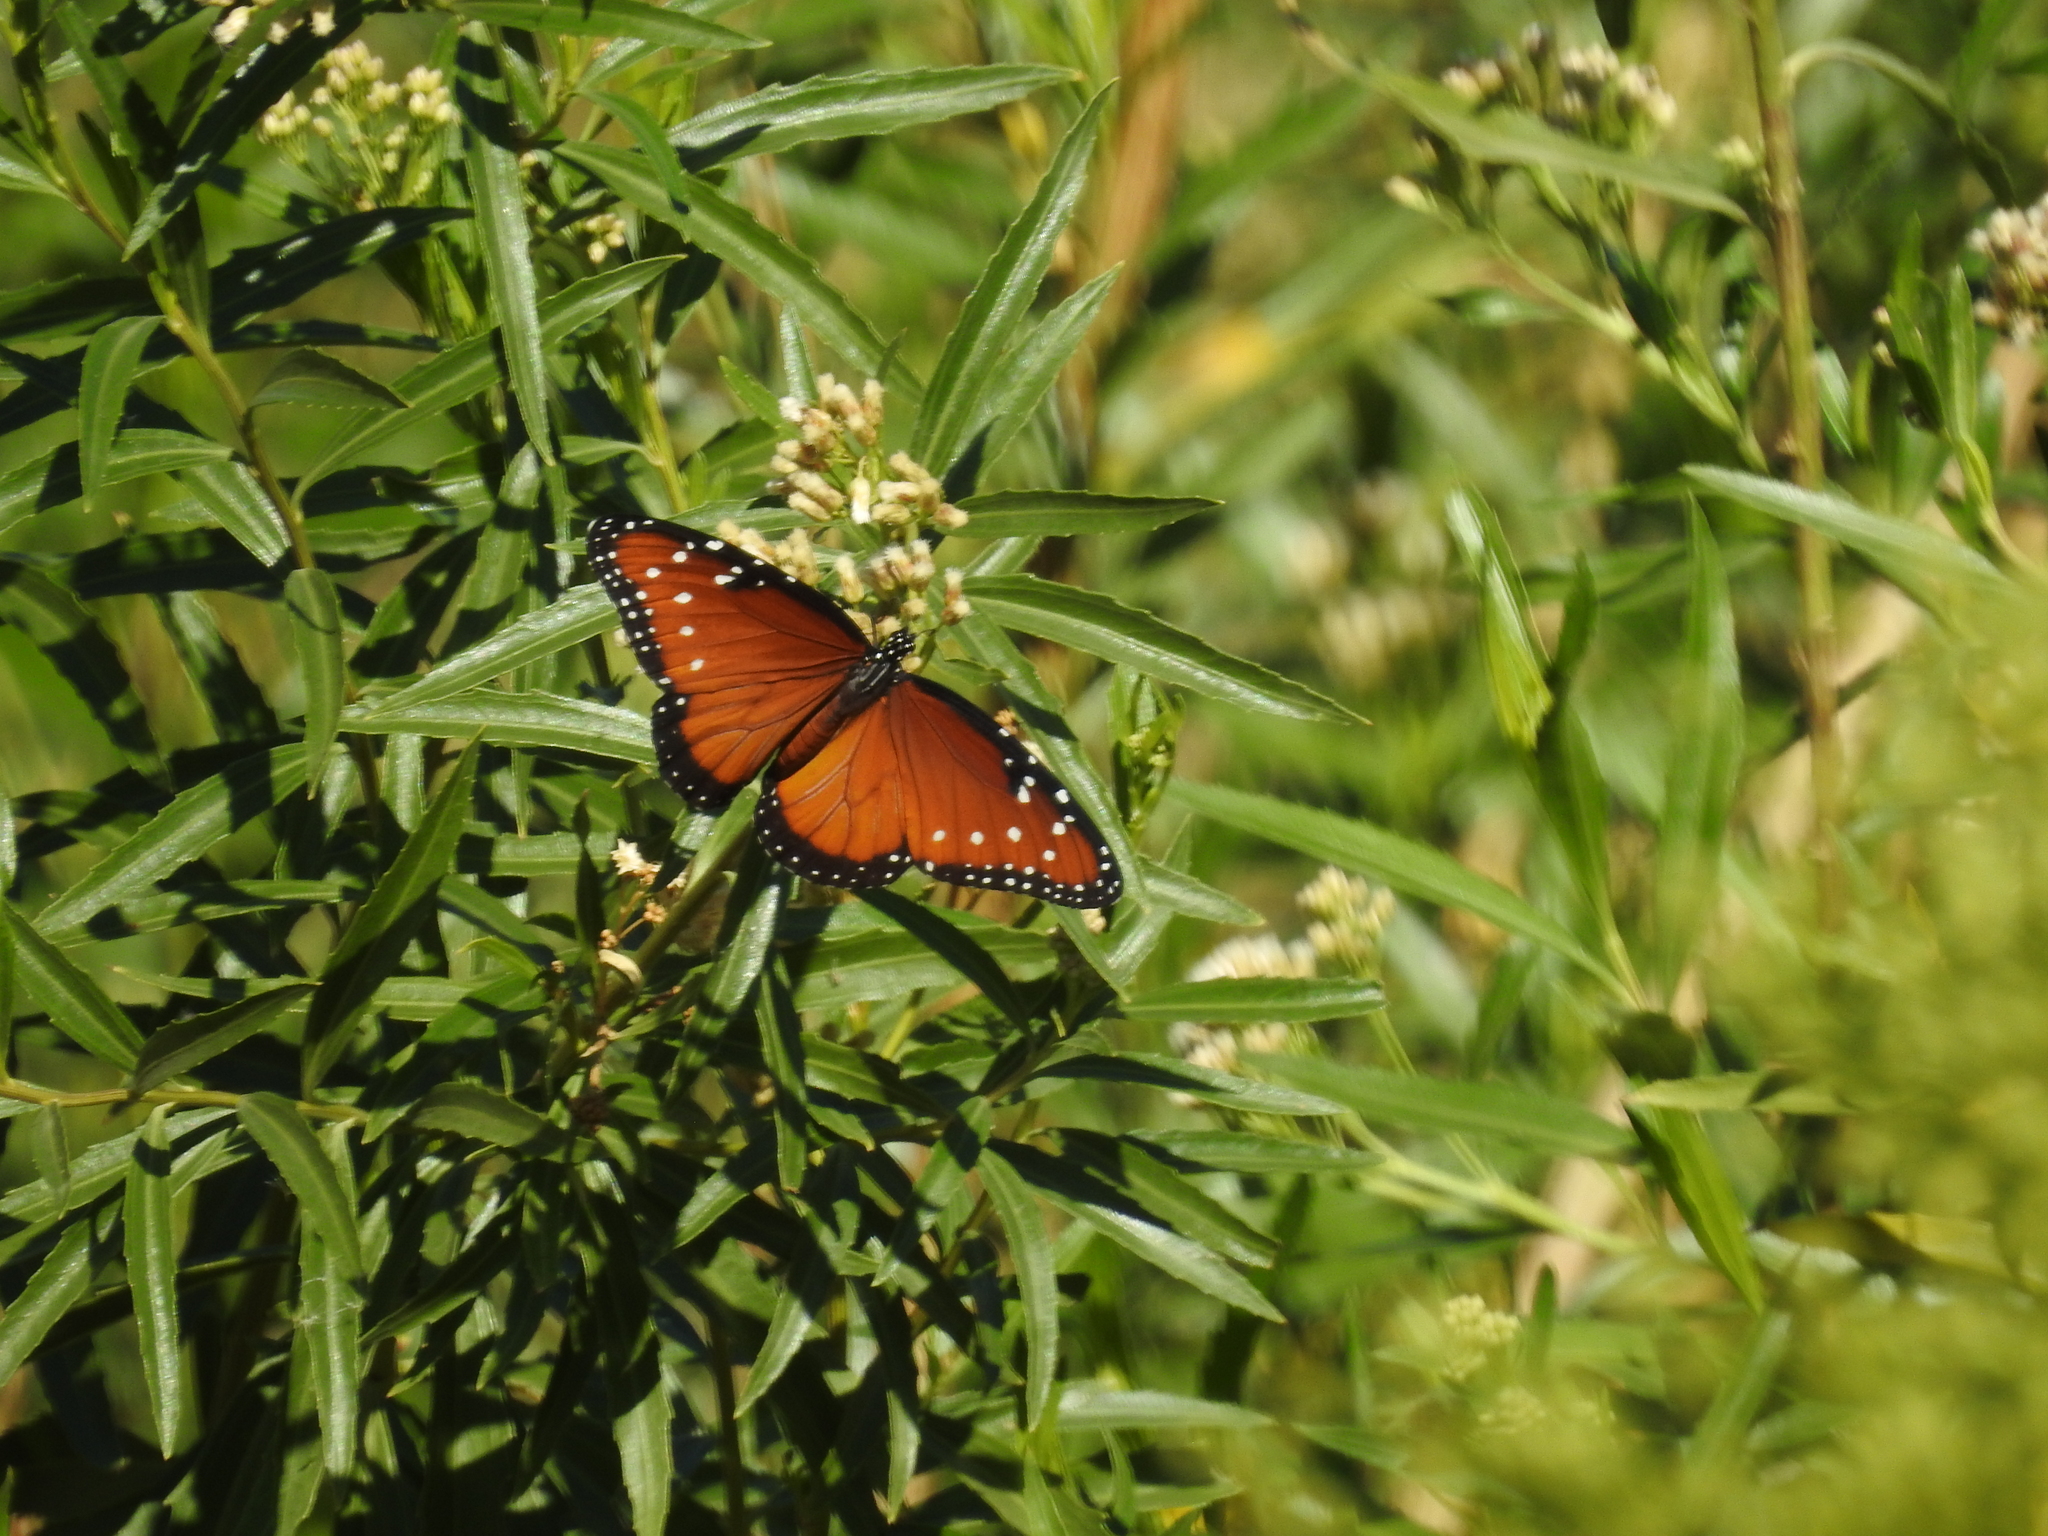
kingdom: Animalia
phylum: Arthropoda
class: Insecta
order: Lepidoptera
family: Nymphalidae
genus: Danaus
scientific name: Danaus gilippus
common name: Queen
